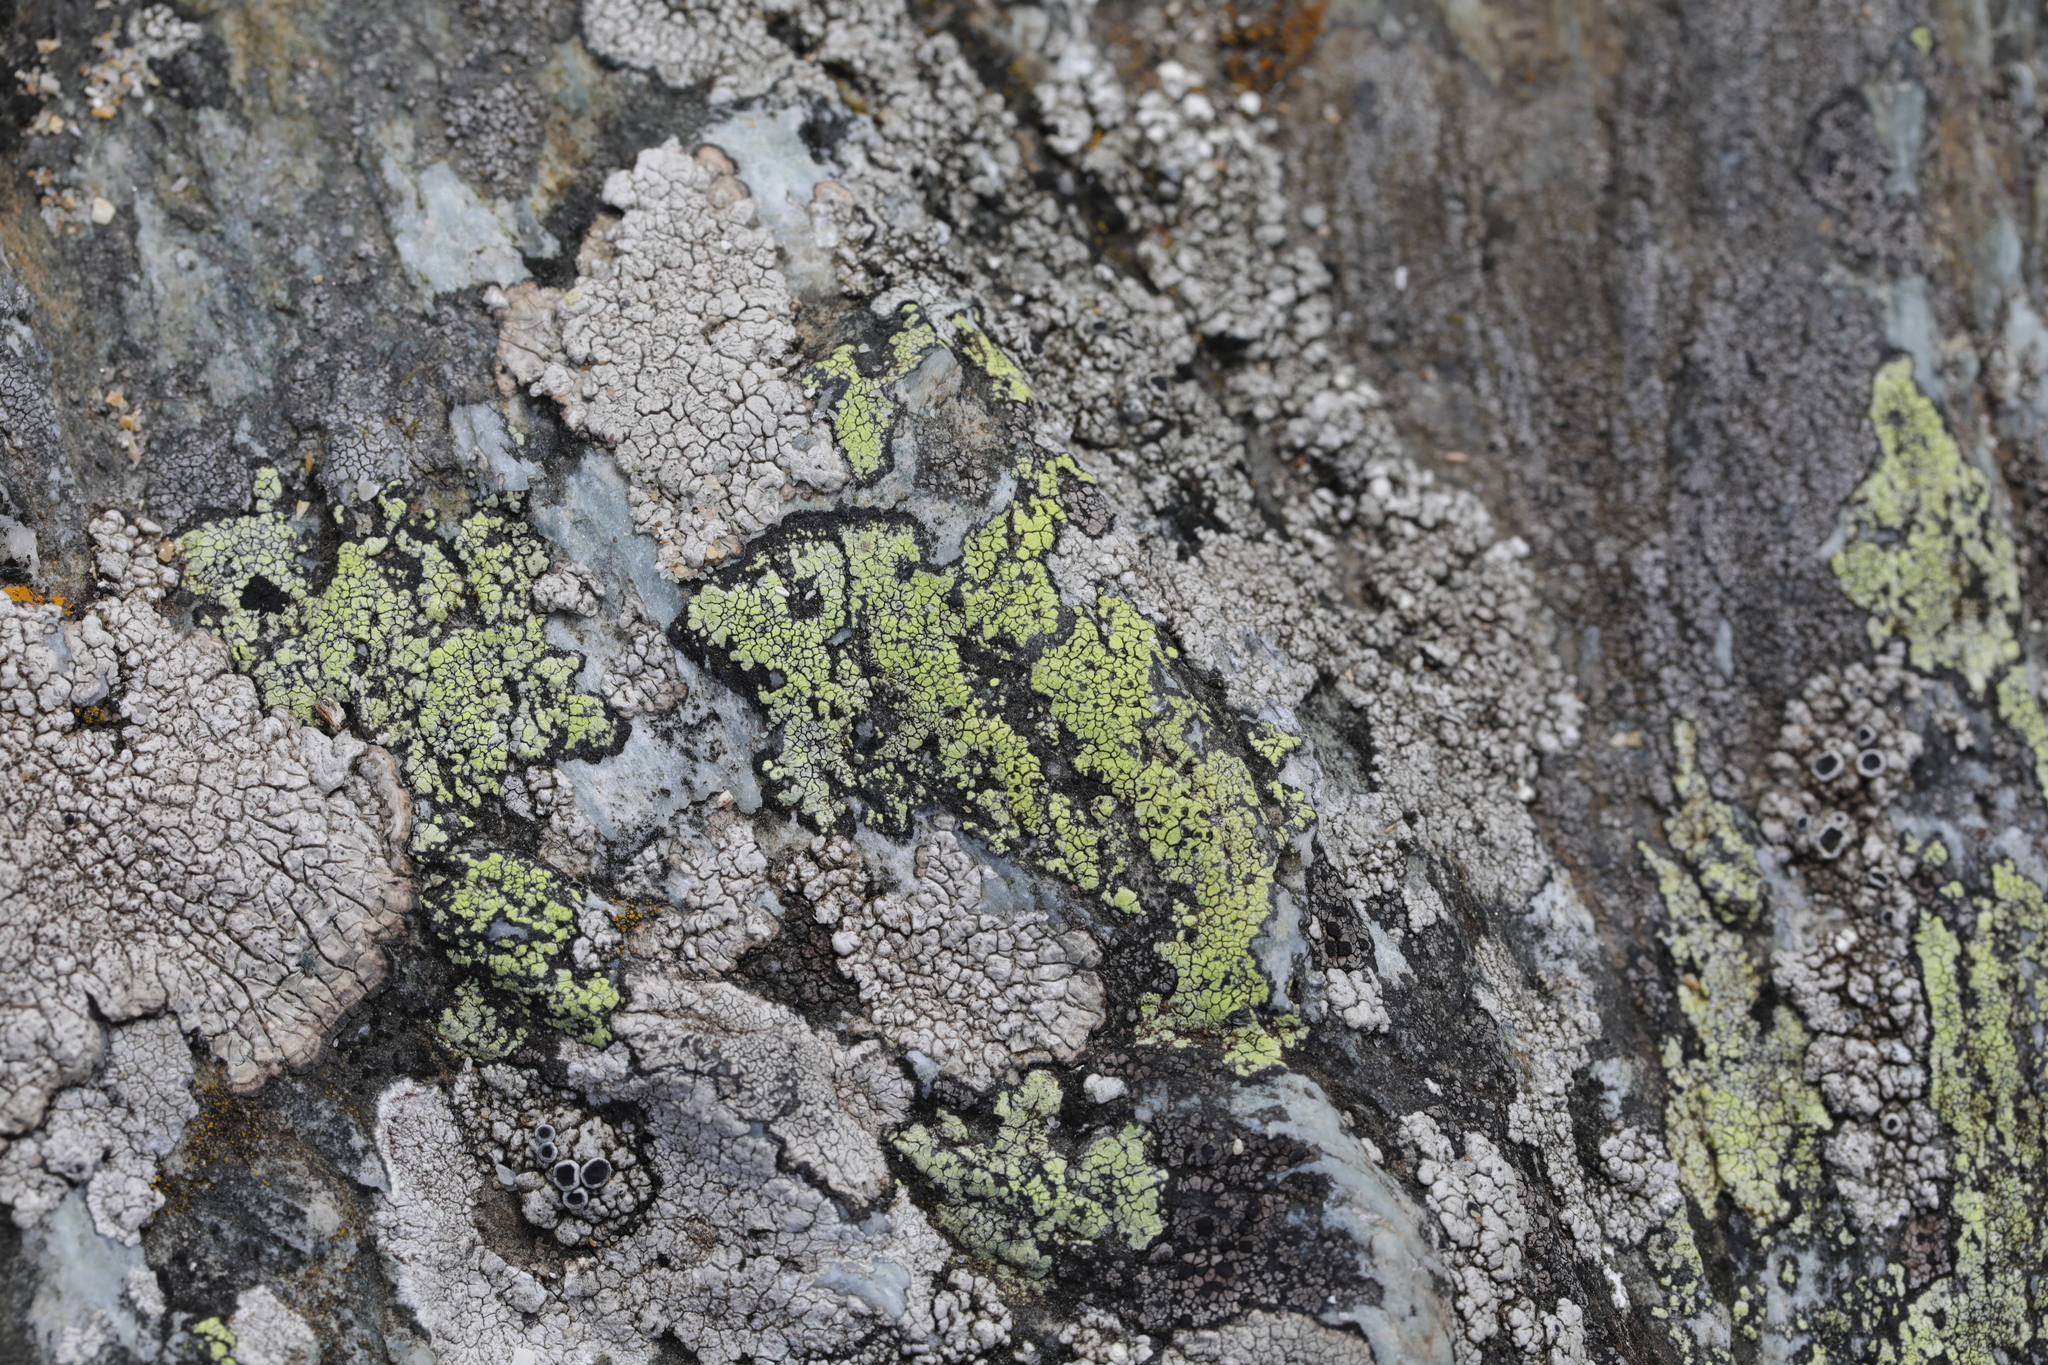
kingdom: Fungi
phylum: Ascomycota
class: Lecanoromycetes
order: Rhizocarpales
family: Rhizocarpaceae
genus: Rhizocarpon
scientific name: Rhizocarpon geographicum
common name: Yellow map lichen
